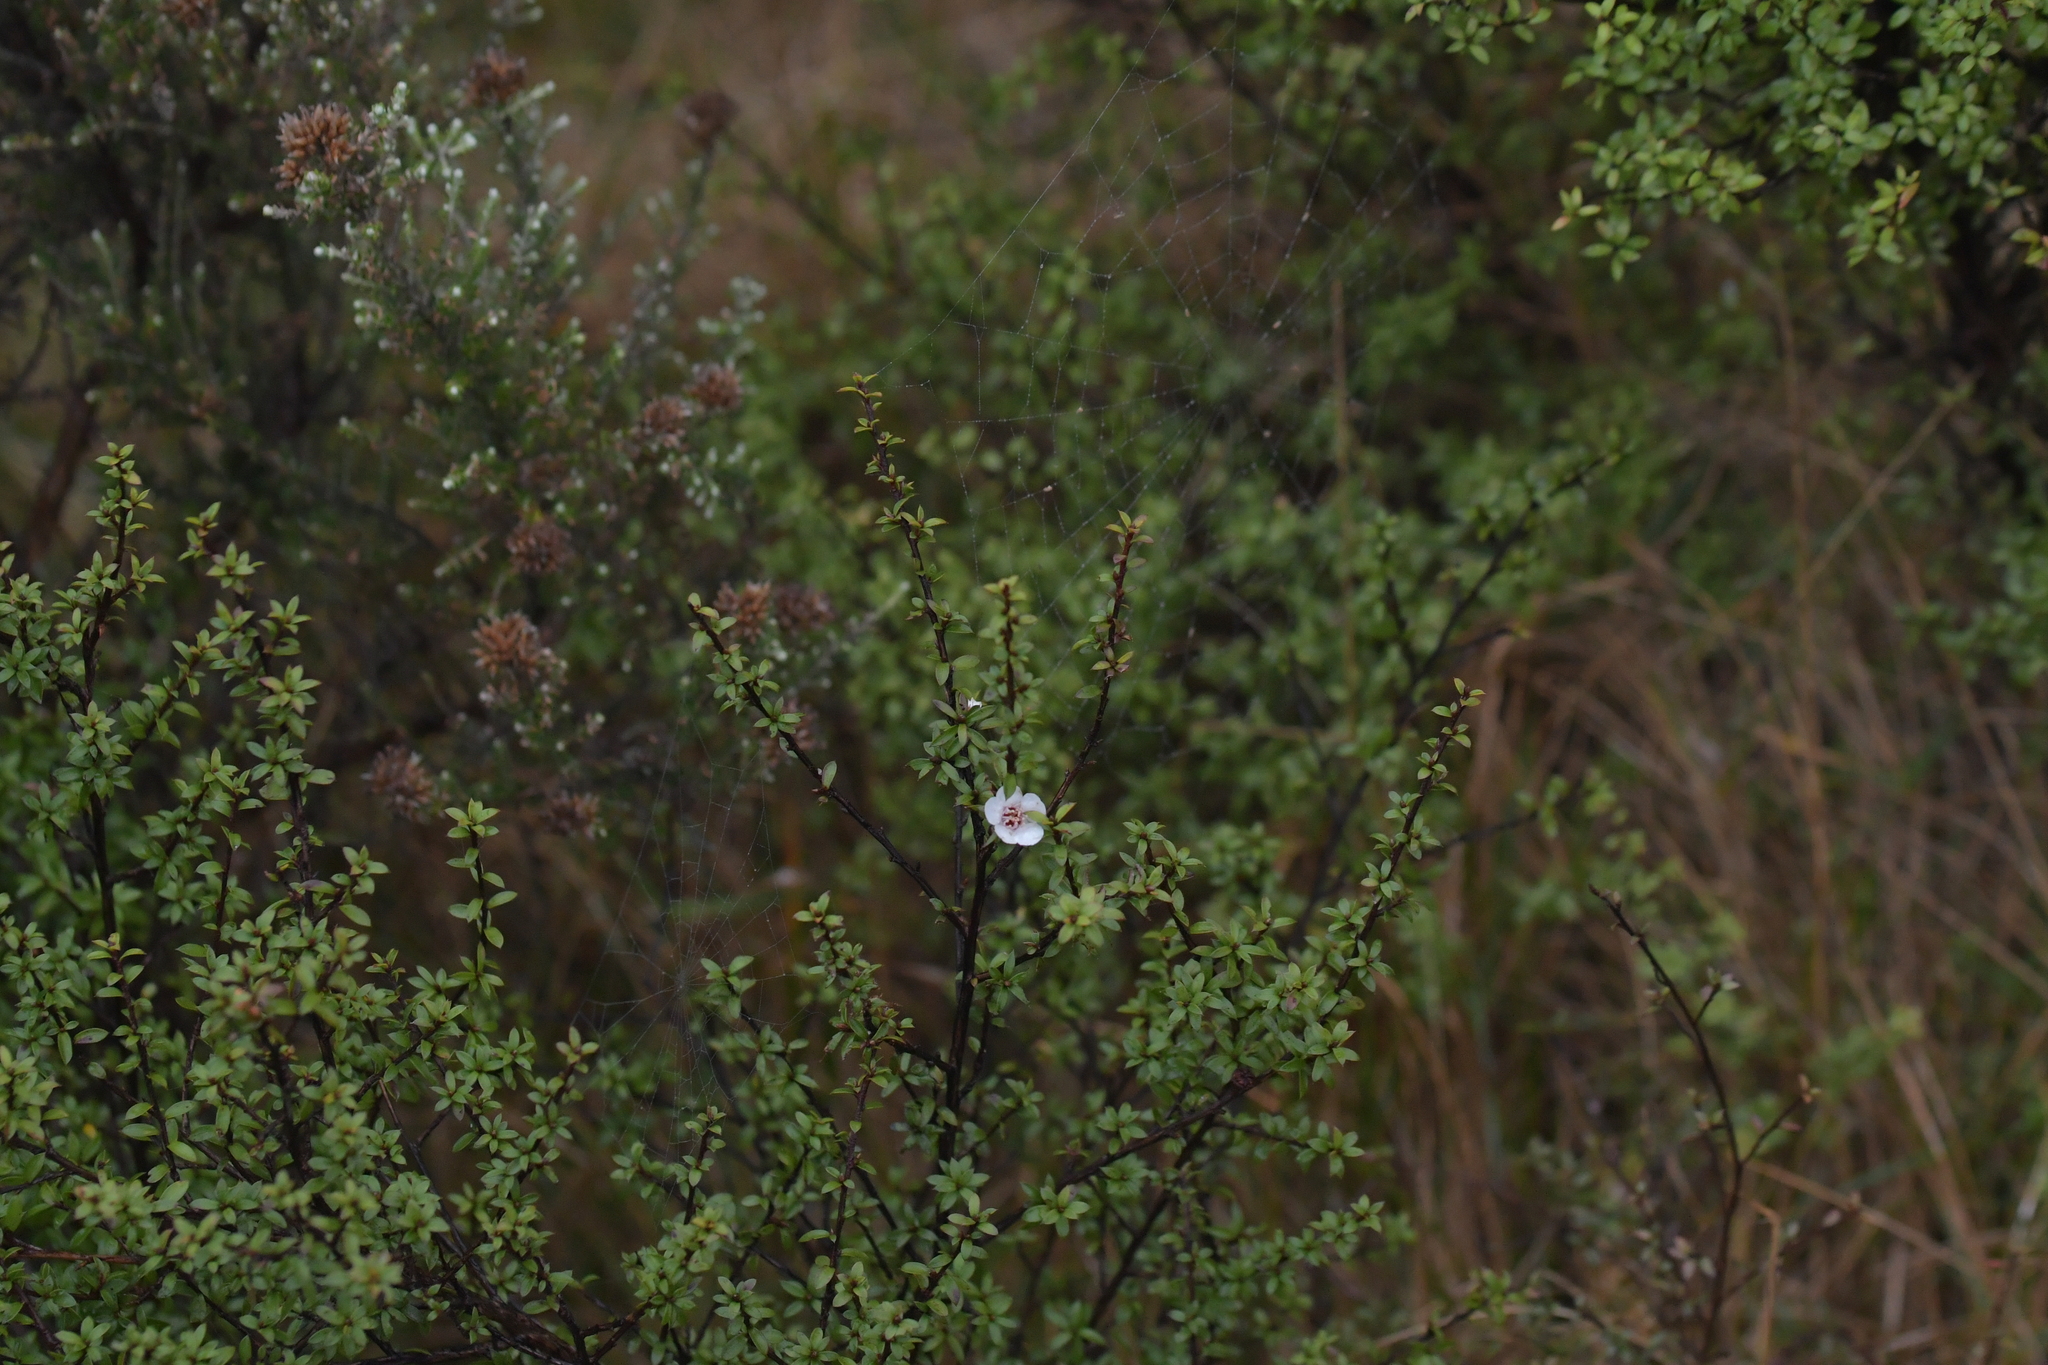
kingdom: Plantae
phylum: Tracheophyta
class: Magnoliopsida
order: Myrtales
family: Myrtaceae
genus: Leptospermum
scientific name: Leptospermum scoparium
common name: Broom tea-tree
